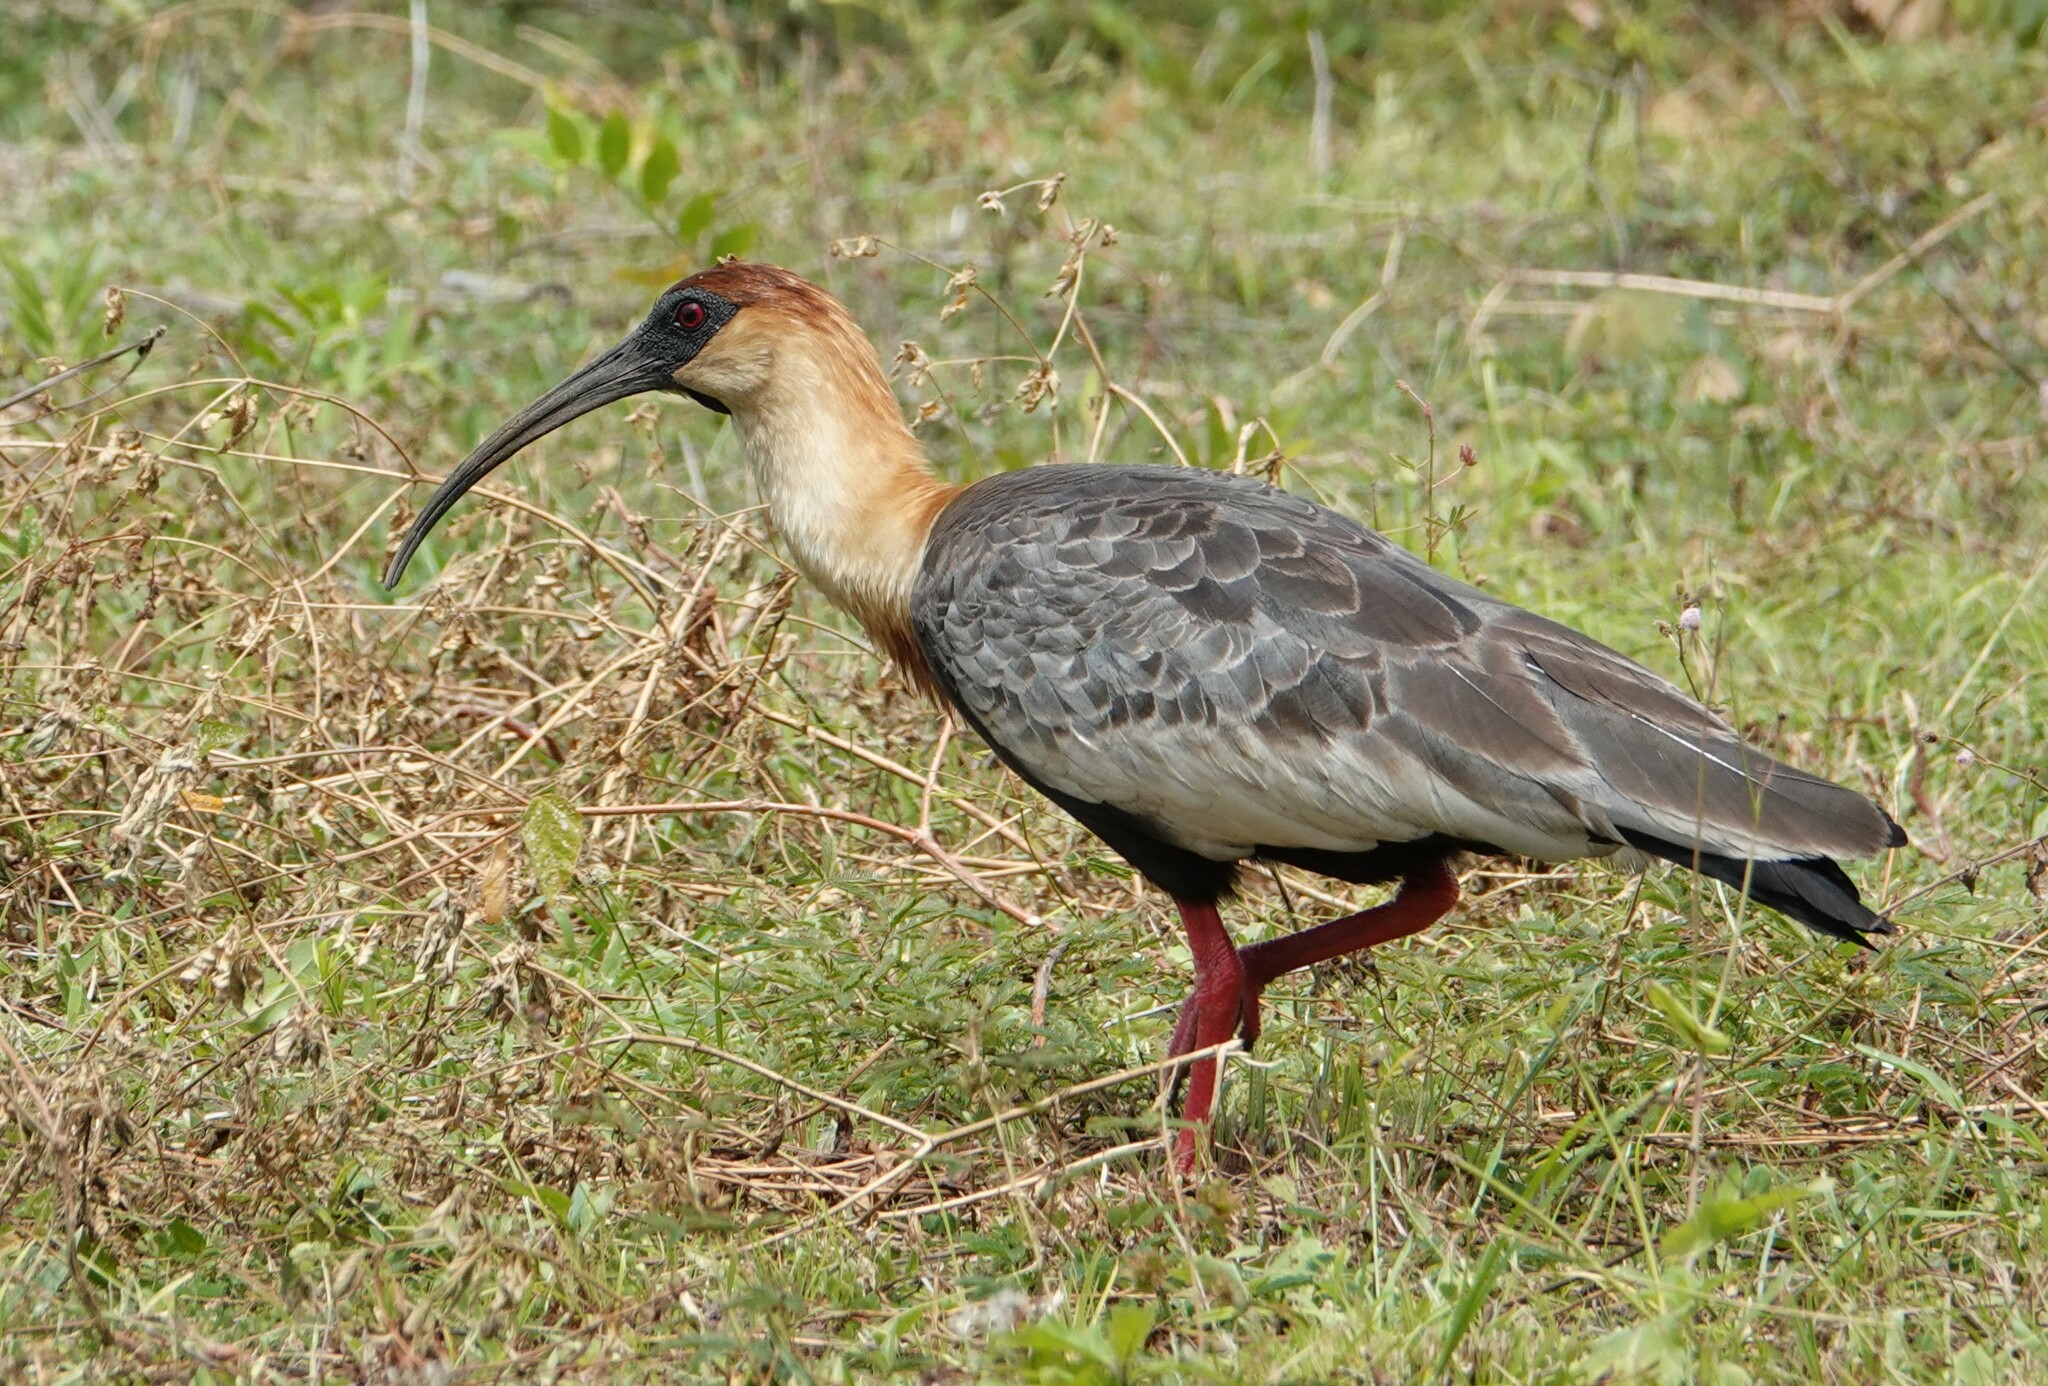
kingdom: Animalia
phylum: Chordata
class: Aves
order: Pelecaniformes
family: Threskiornithidae
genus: Theristicus
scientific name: Theristicus caudatus
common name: Buff-necked ibis
